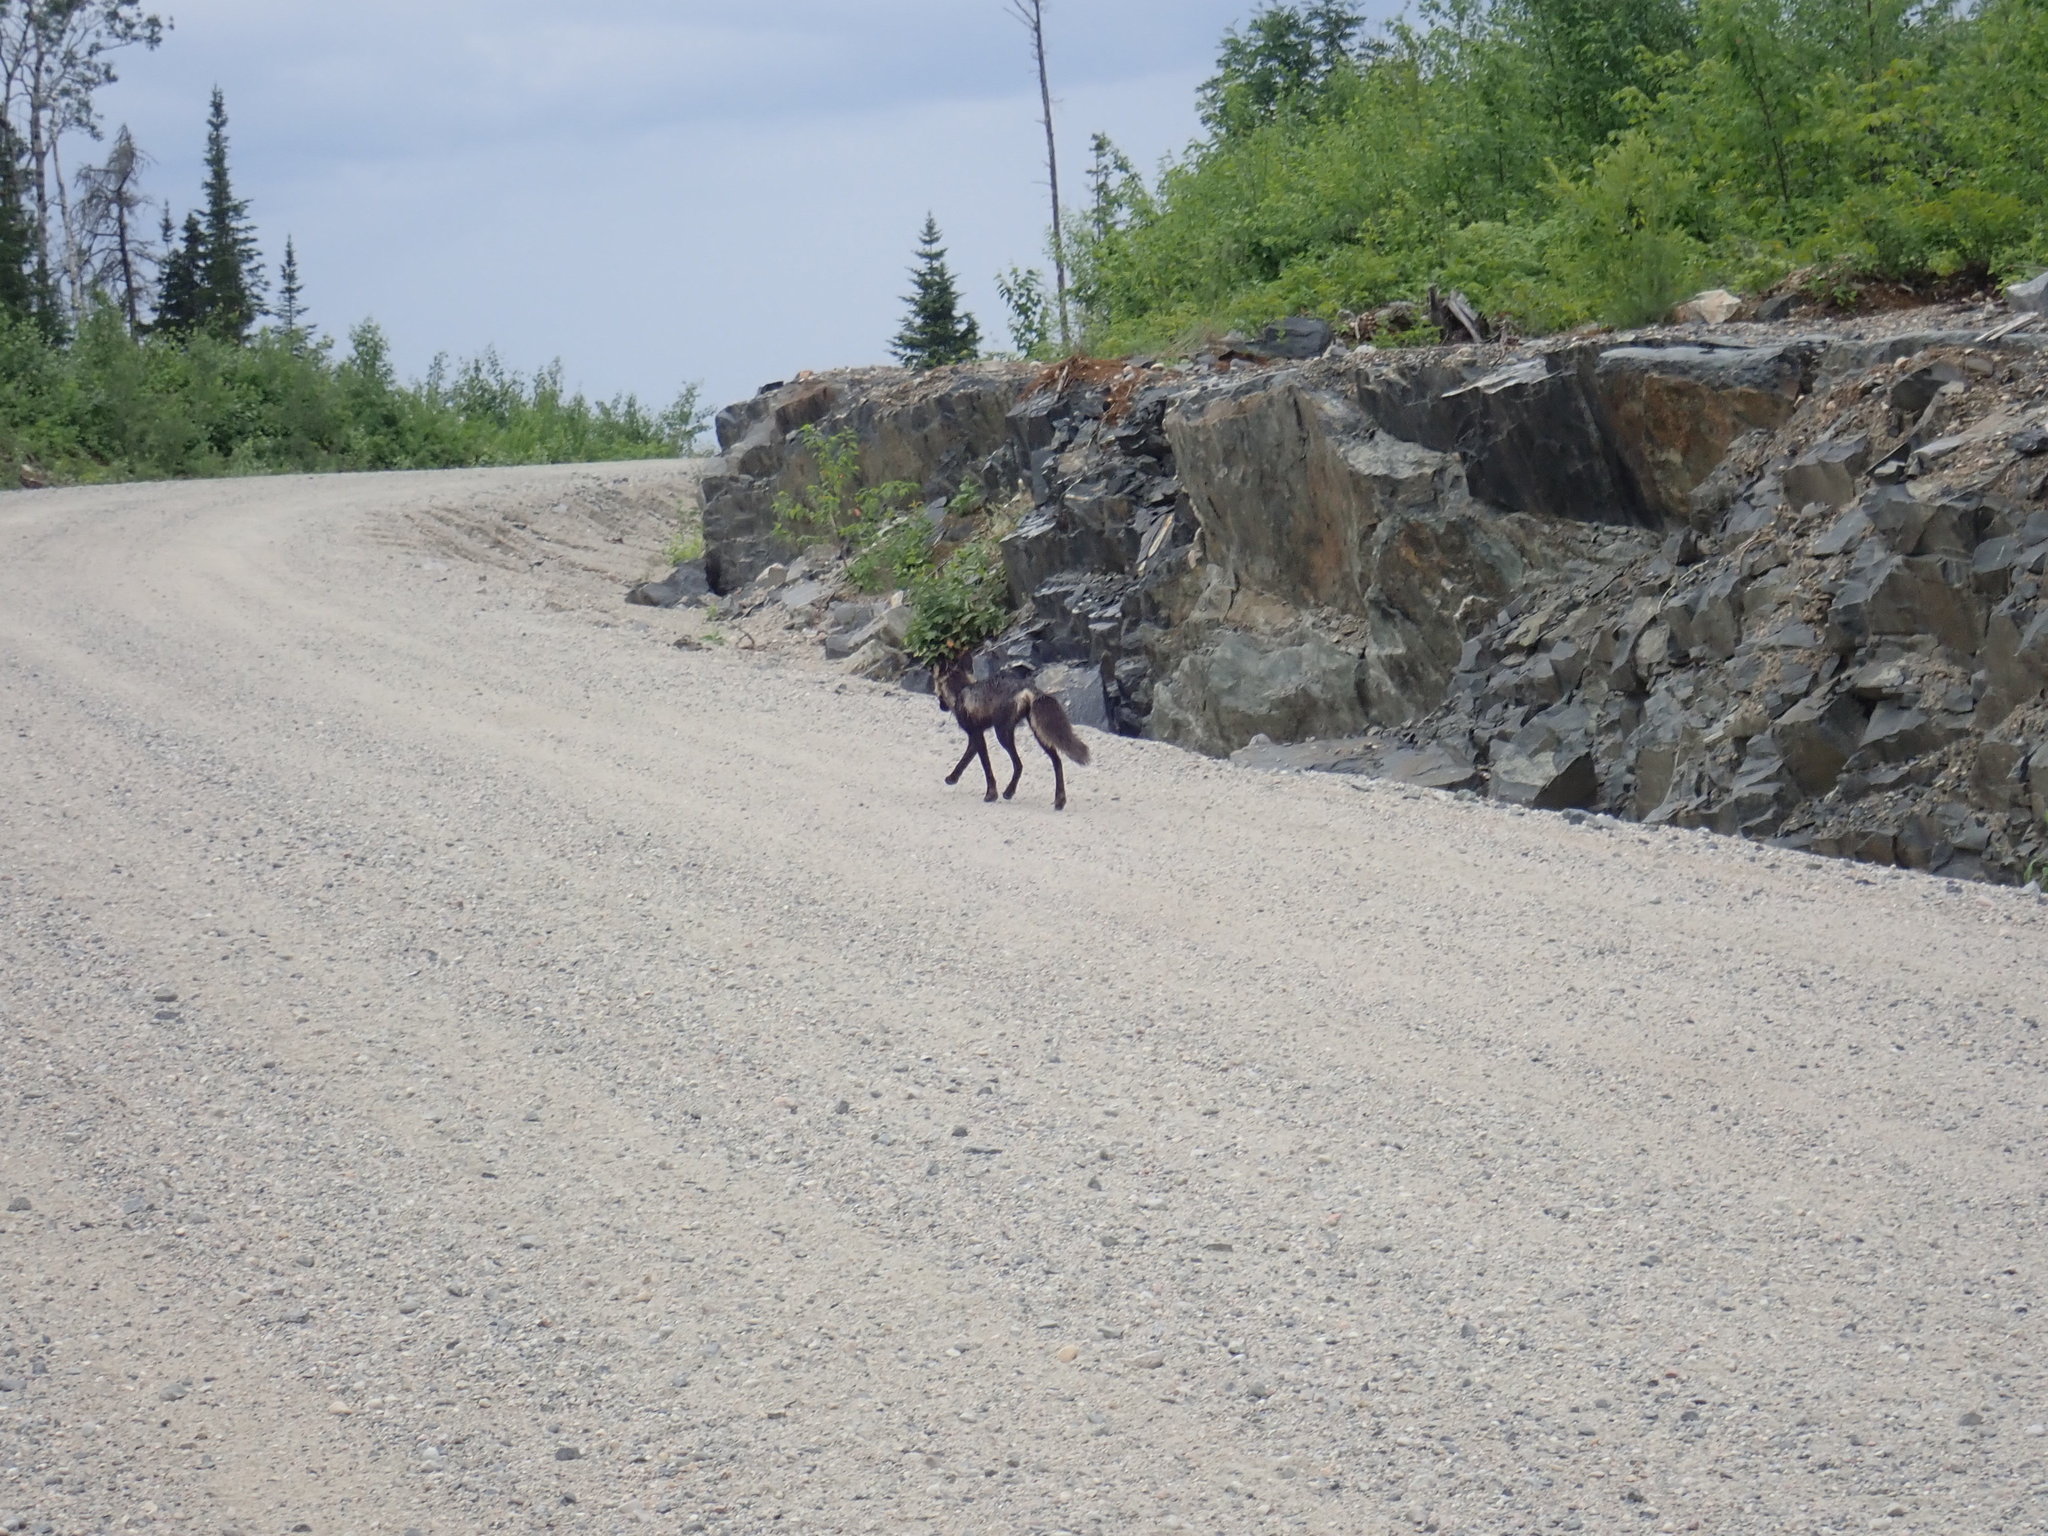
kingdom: Animalia
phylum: Chordata
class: Mammalia
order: Carnivora
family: Canidae
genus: Vulpes
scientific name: Vulpes vulpes
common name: Red fox
